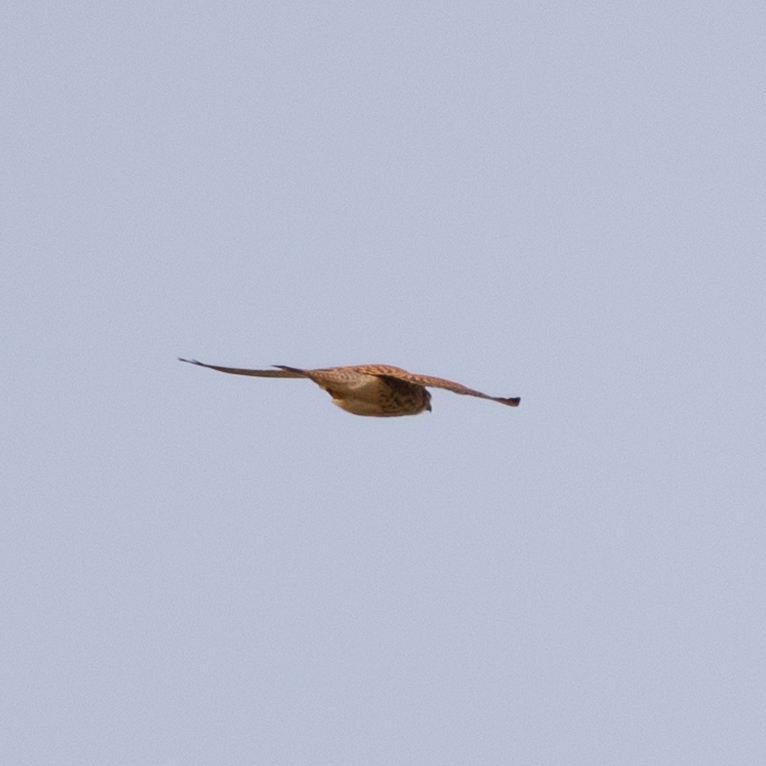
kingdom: Animalia
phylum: Chordata
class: Aves
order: Falconiformes
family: Falconidae
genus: Falco
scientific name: Falco tinnunculus
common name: Common kestrel
